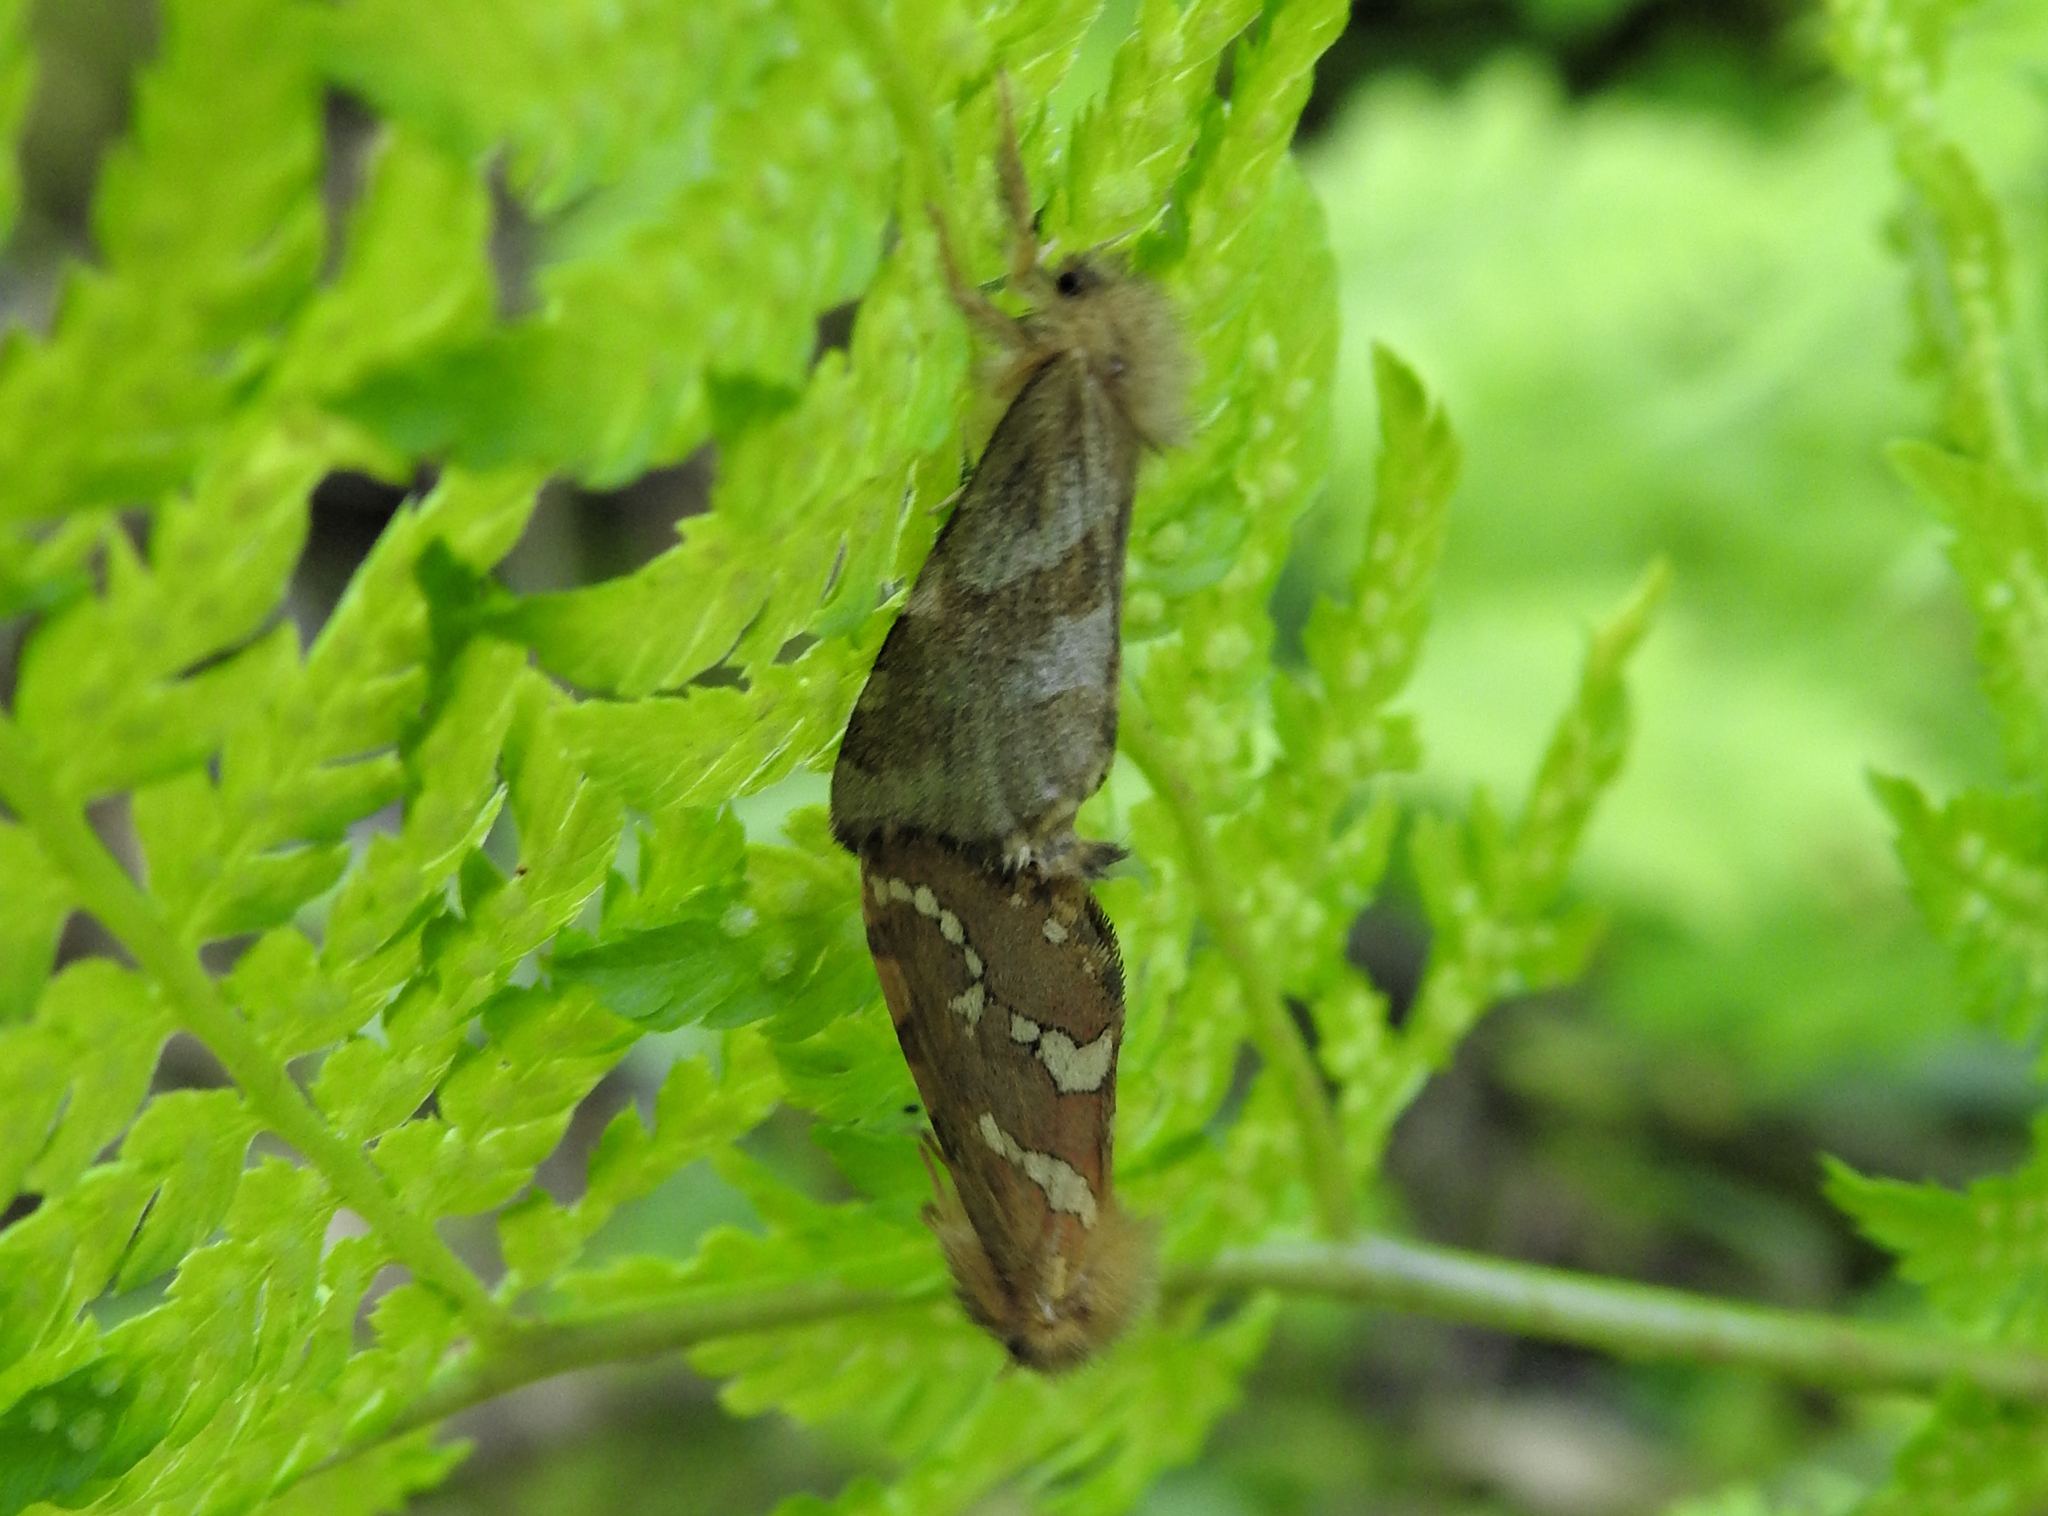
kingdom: Animalia
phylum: Arthropoda
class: Insecta
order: Lepidoptera
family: Hepialidae
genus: Phymatopus
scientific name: Phymatopus hecta
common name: Gold swift
